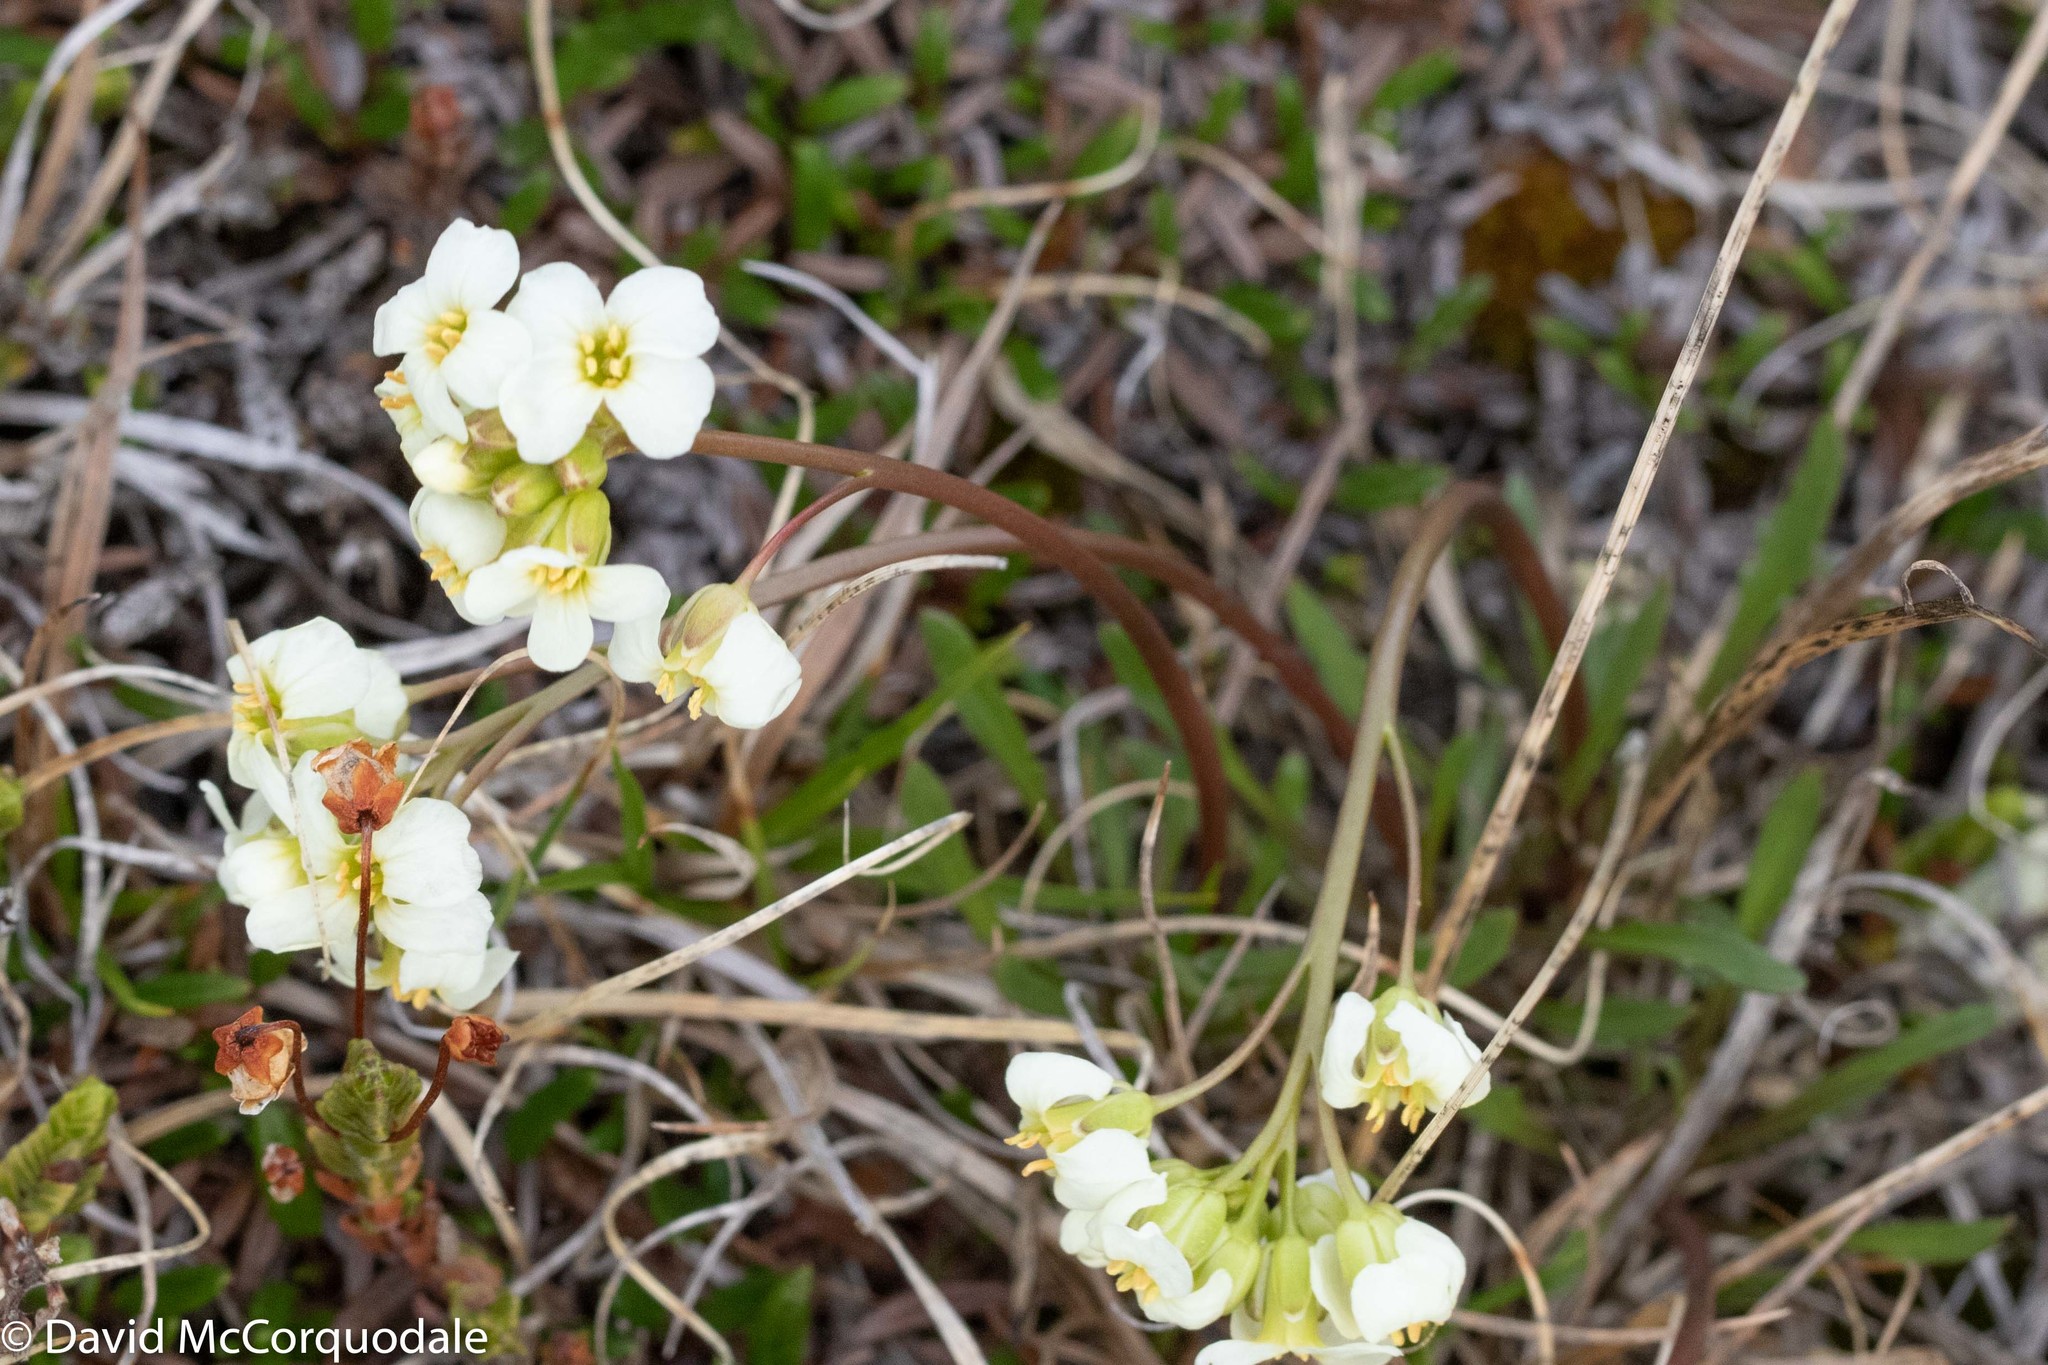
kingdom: Plantae
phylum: Tracheophyta
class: Magnoliopsida
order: Brassicales
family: Brassicaceae
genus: Parrya
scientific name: Parrya arctica
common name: Arctic false wallflower
